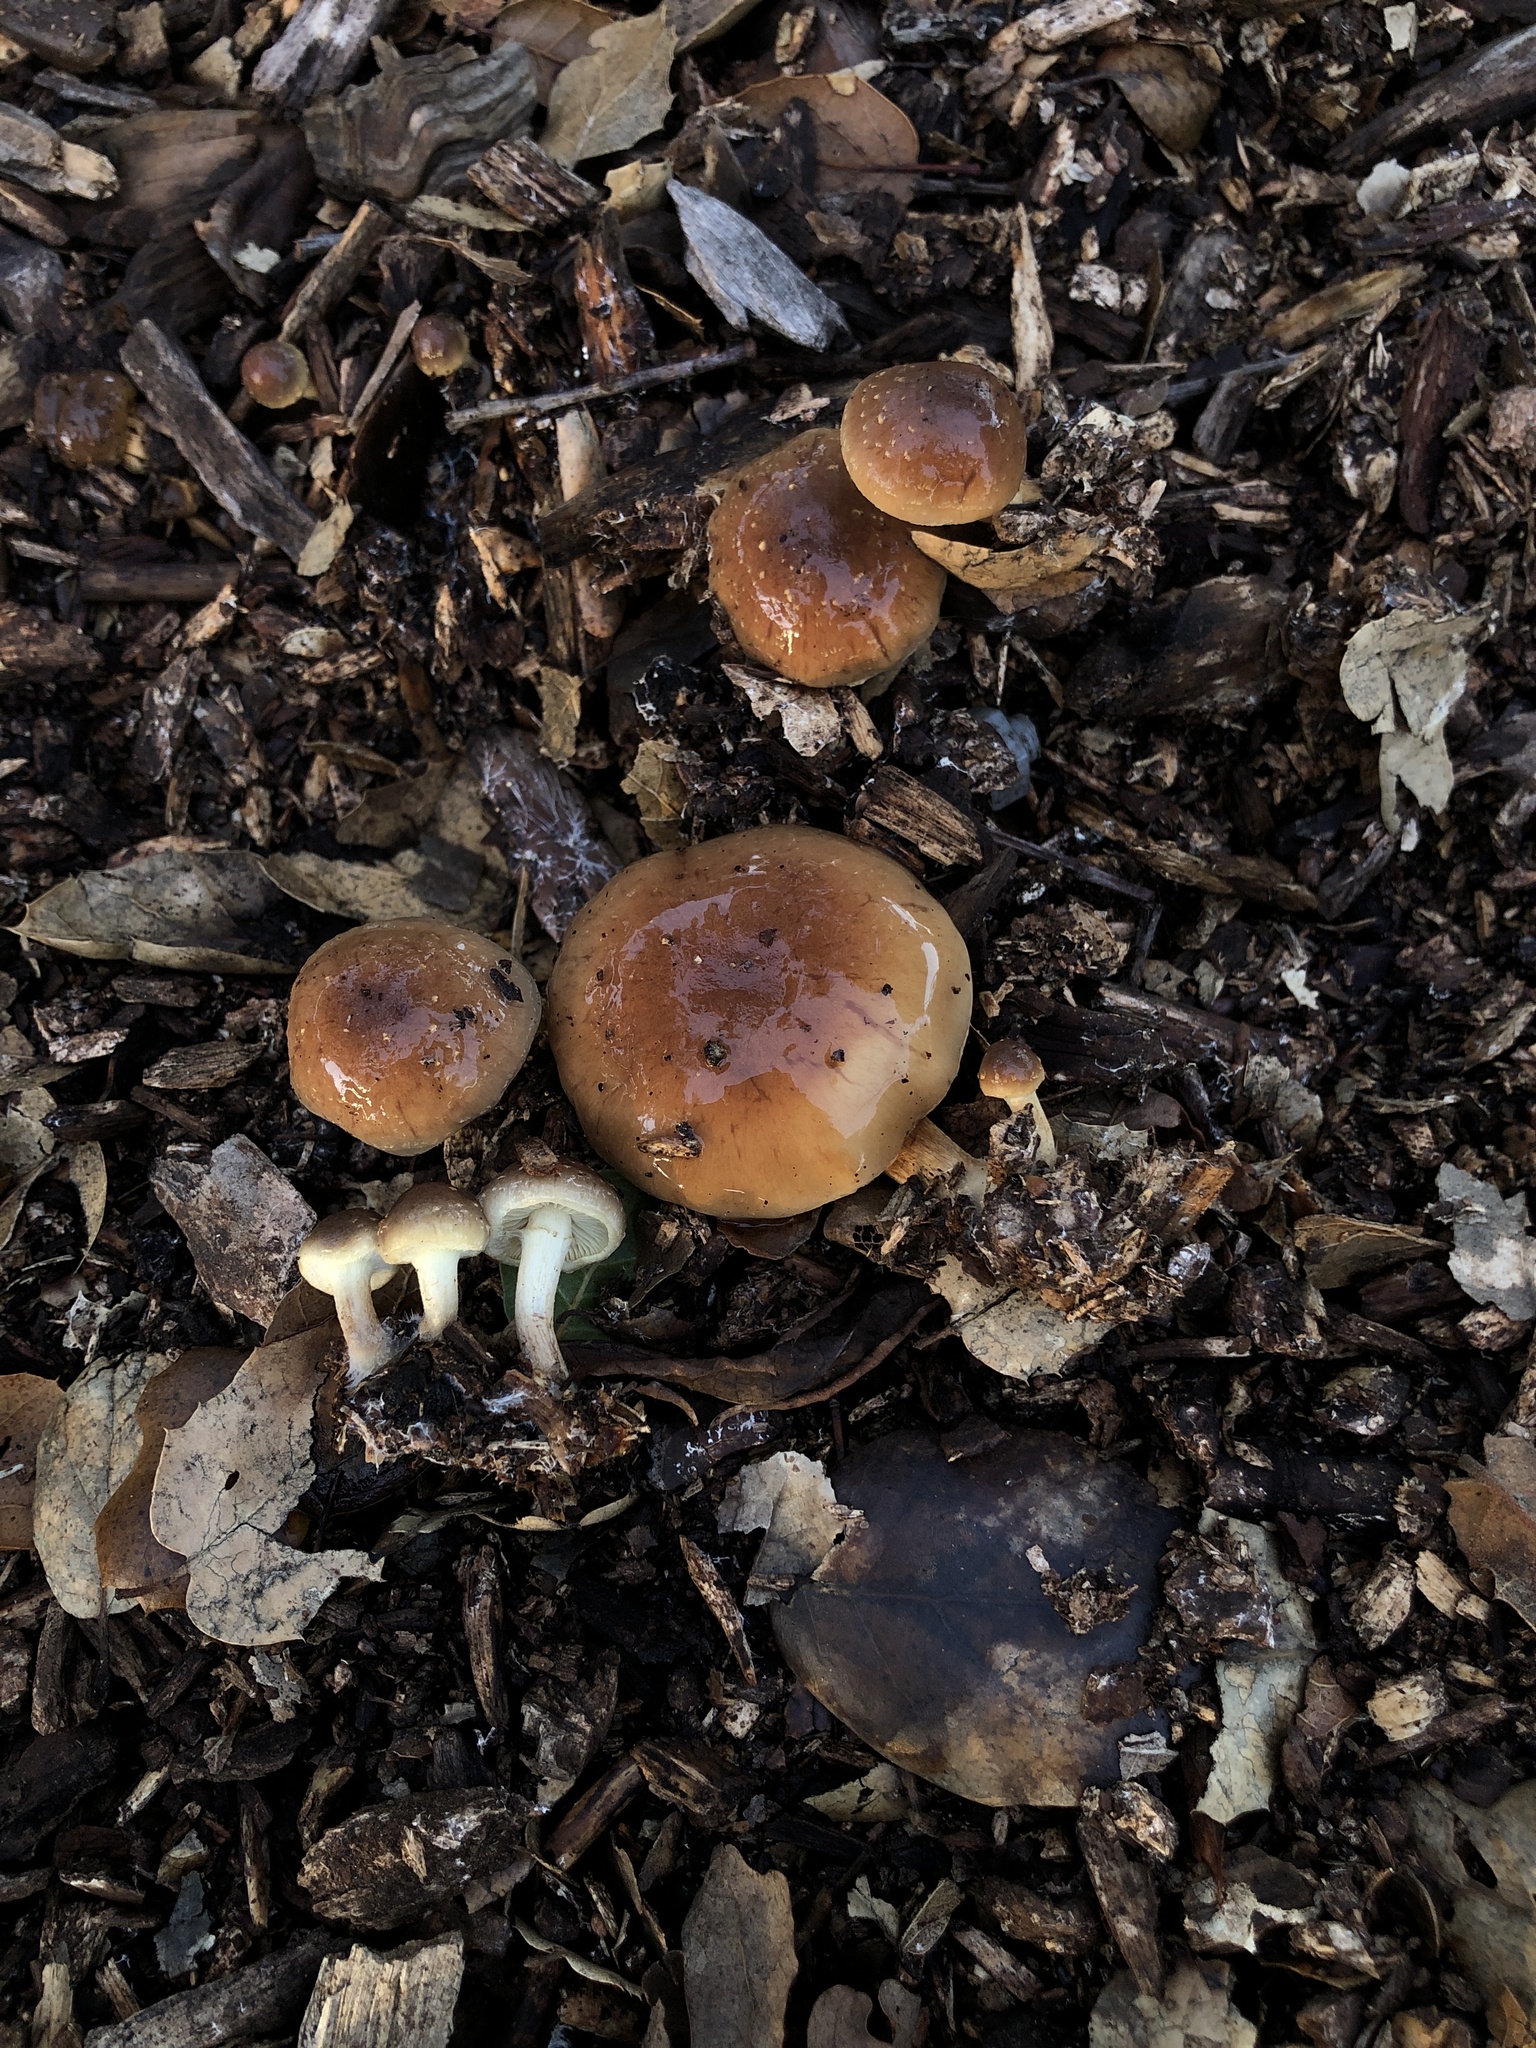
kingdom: Fungi
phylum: Basidiomycota
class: Agaricomycetes
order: Agaricales
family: Strophariaceae
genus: Pholiota
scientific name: Pholiota spumosa
